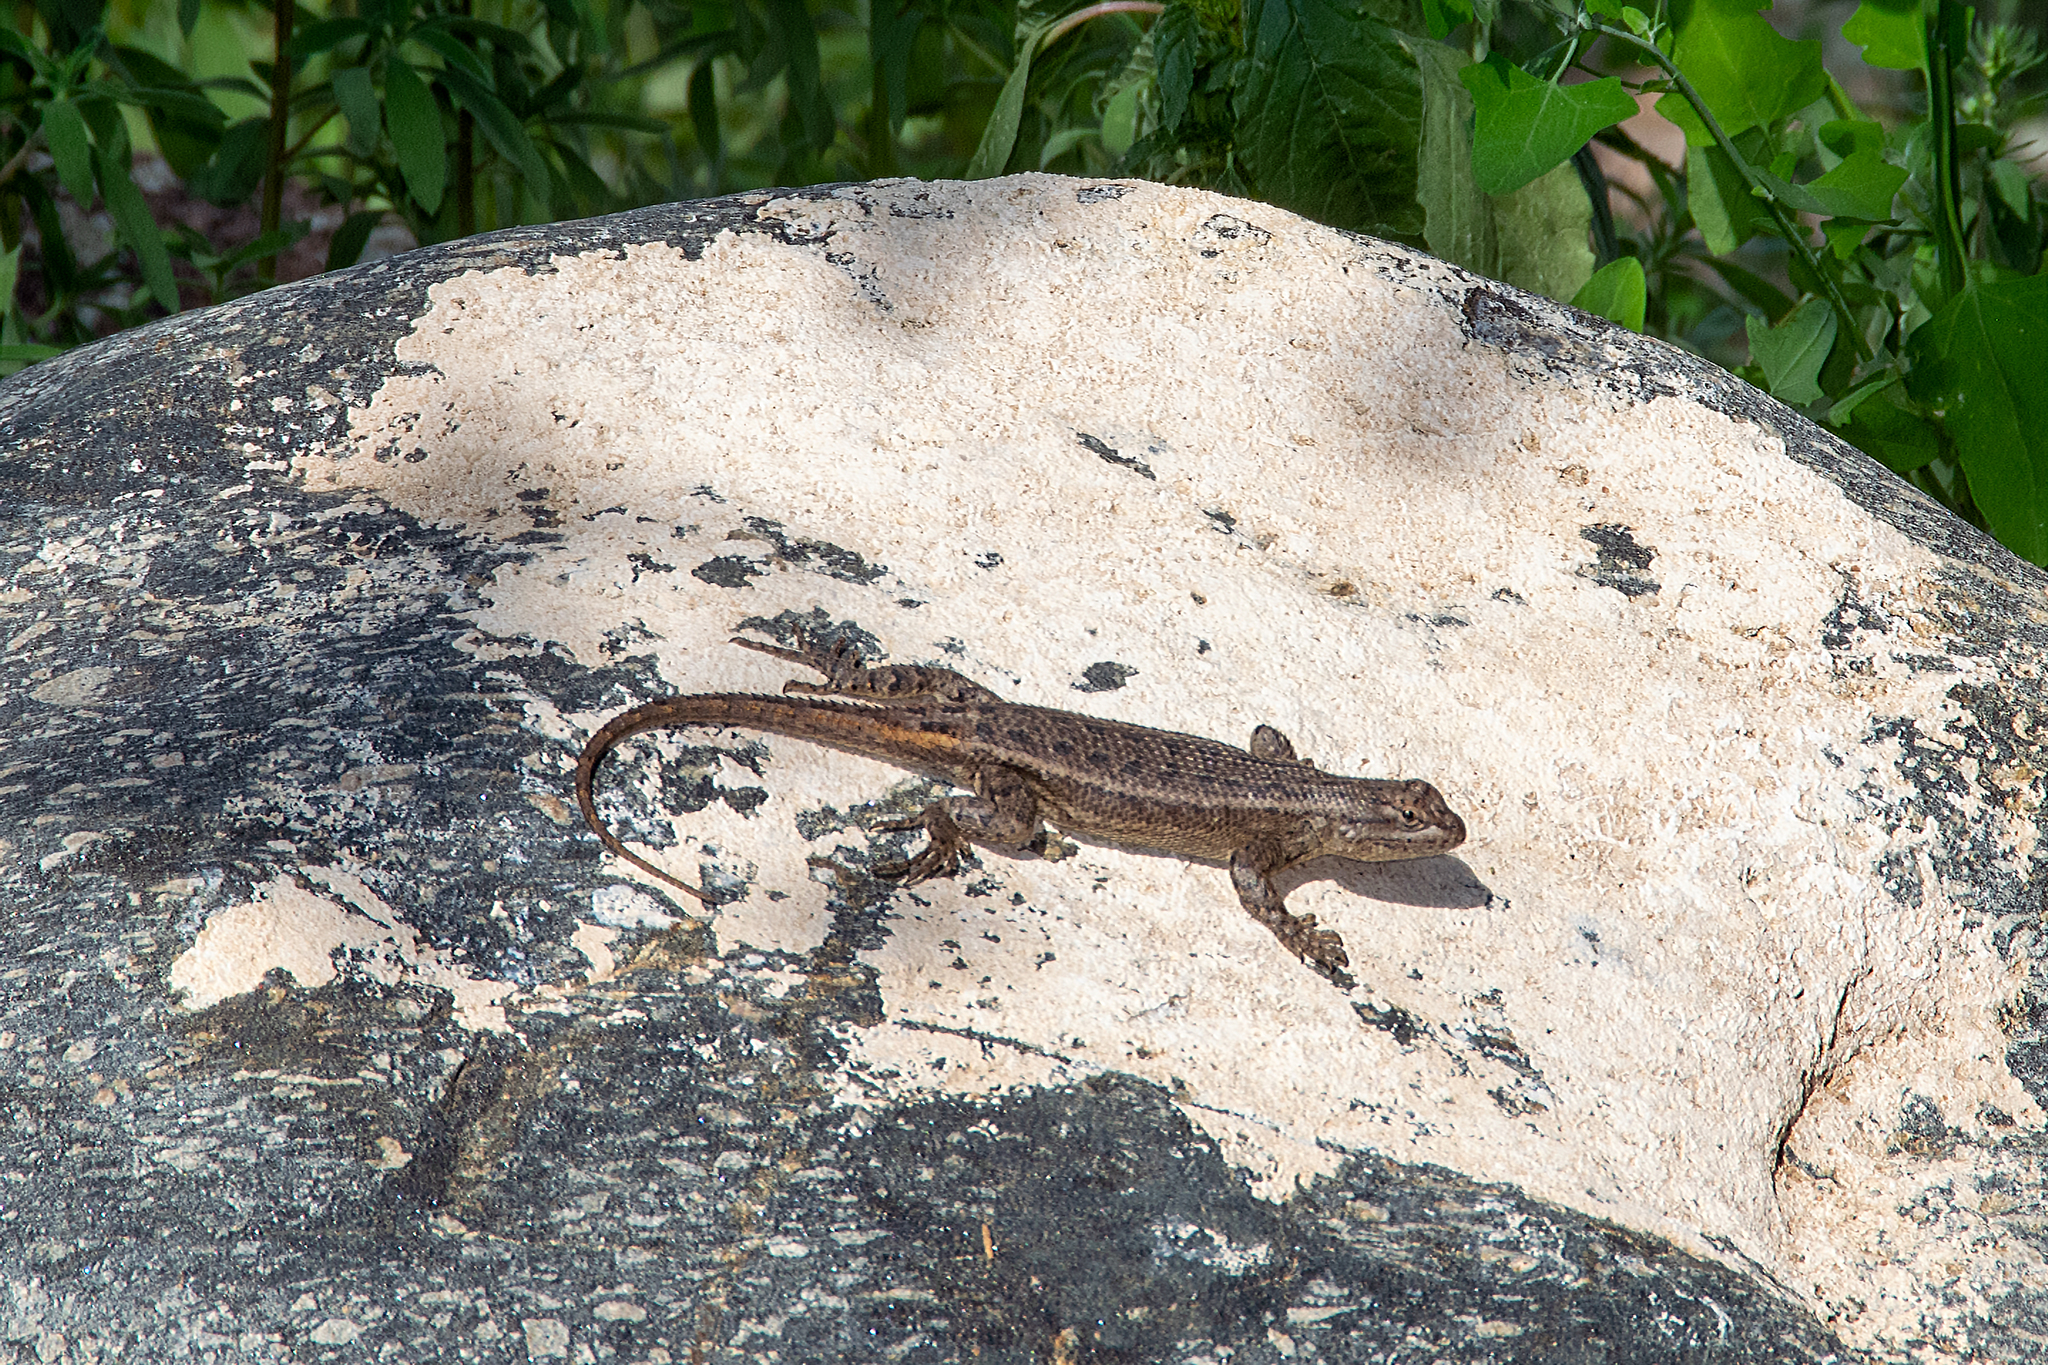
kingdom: Animalia
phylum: Chordata
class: Squamata
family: Phrynosomatidae
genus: Sceloporus
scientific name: Sceloporus
